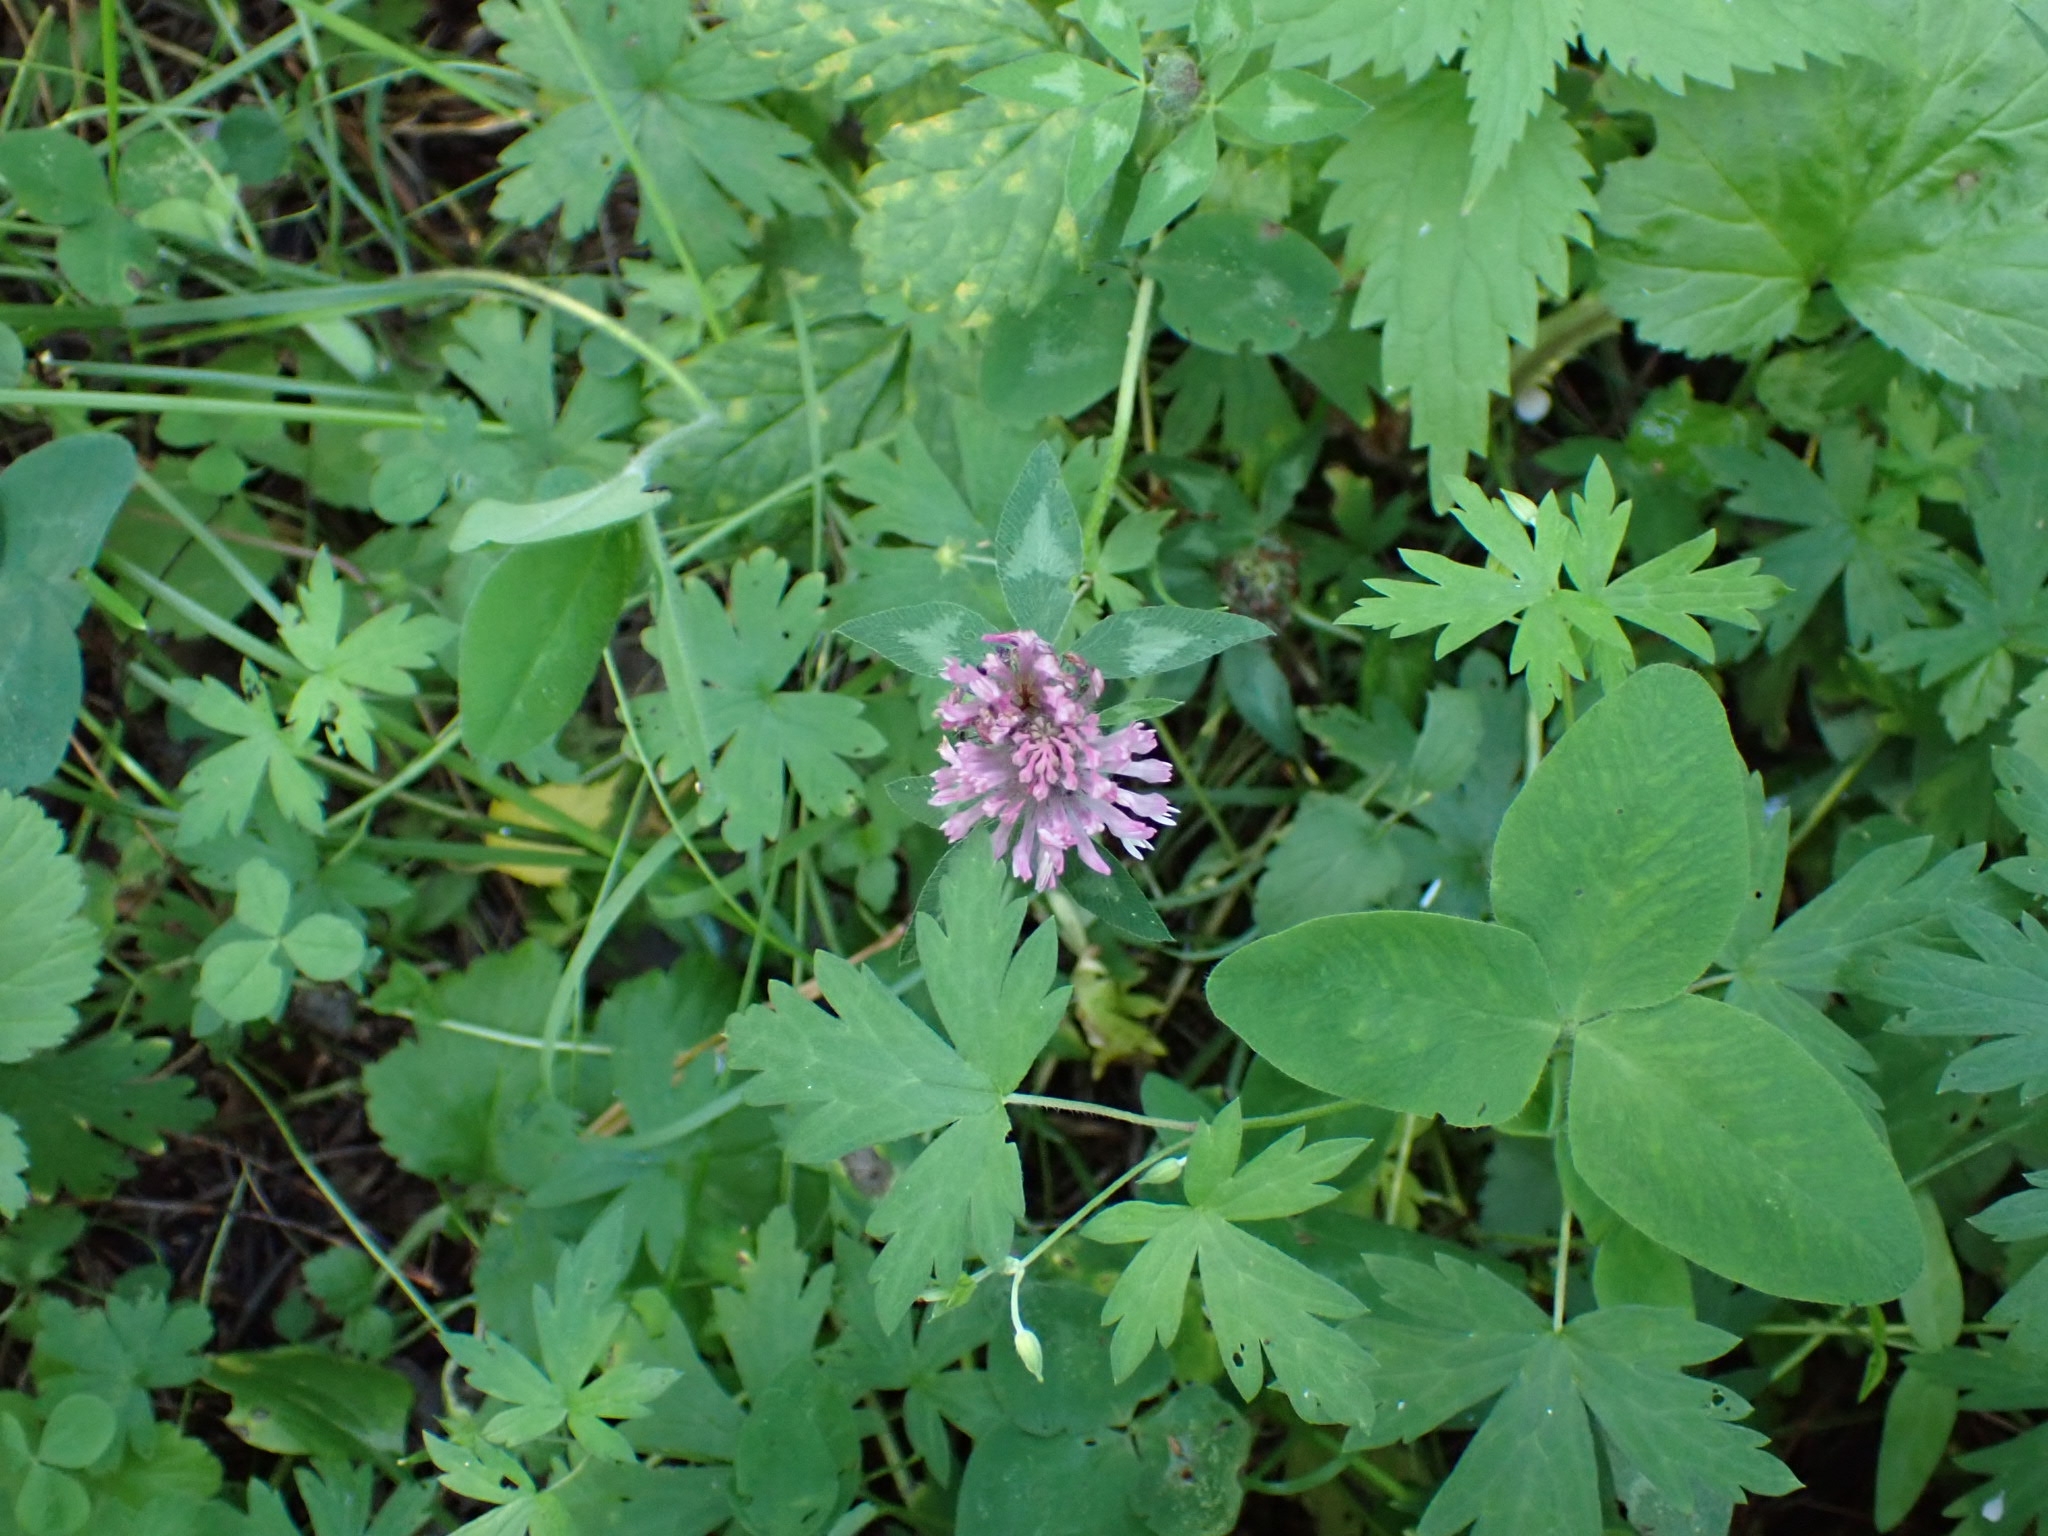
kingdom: Plantae
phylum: Tracheophyta
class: Magnoliopsida
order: Fabales
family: Fabaceae
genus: Trifolium
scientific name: Trifolium pratense
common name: Red clover
